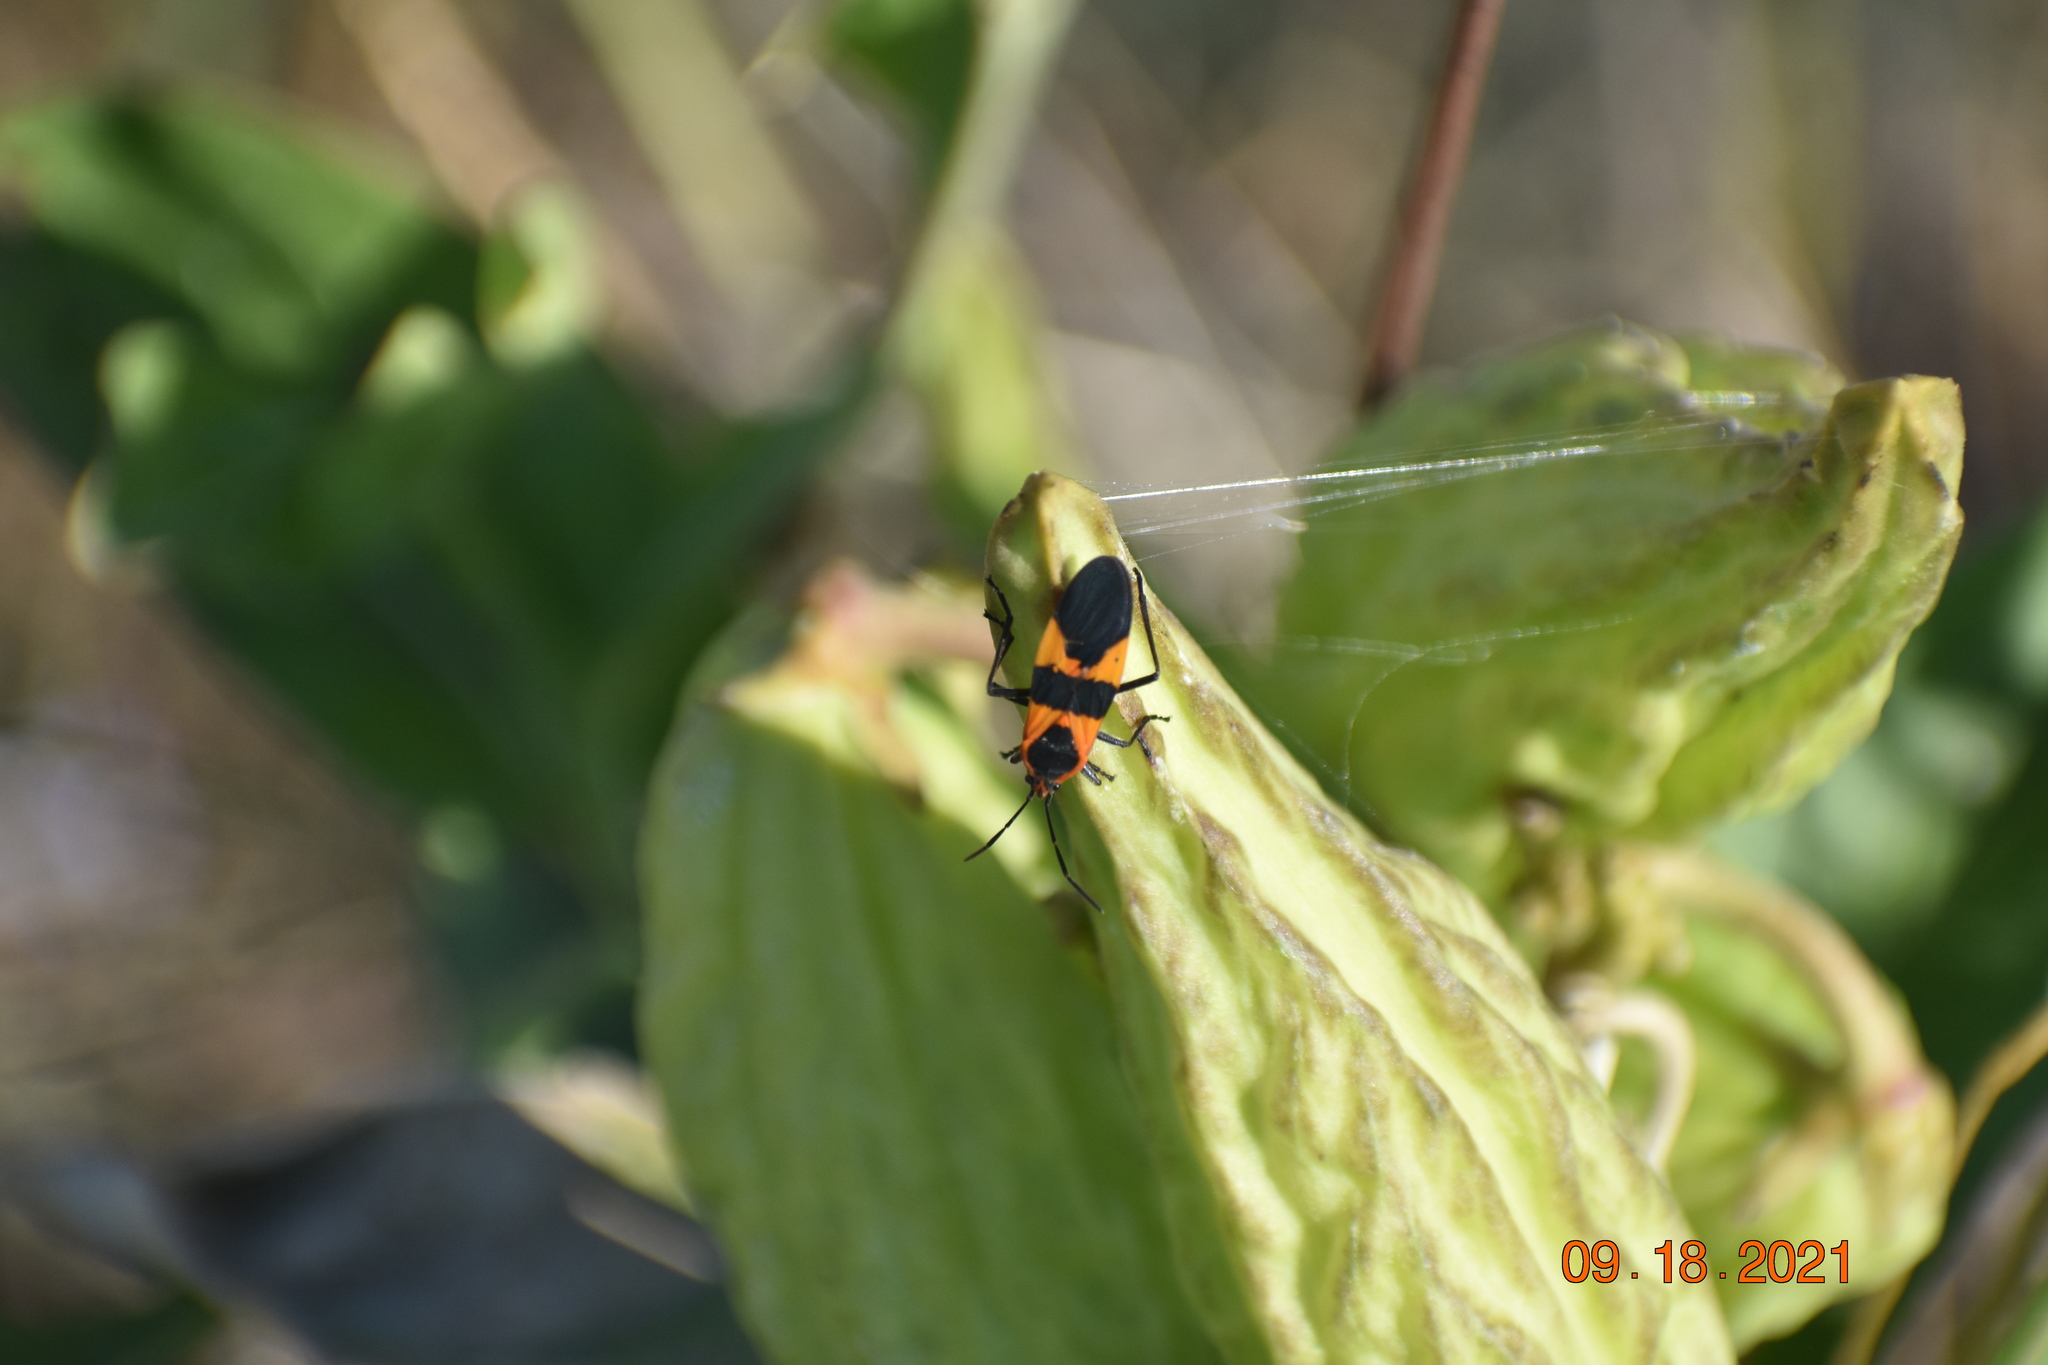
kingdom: Animalia
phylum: Arthropoda
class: Insecta
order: Hemiptera
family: Lygaeidae
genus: Oncopeltus
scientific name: Oncopeltus fasciatus
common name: Large milkweed bug
